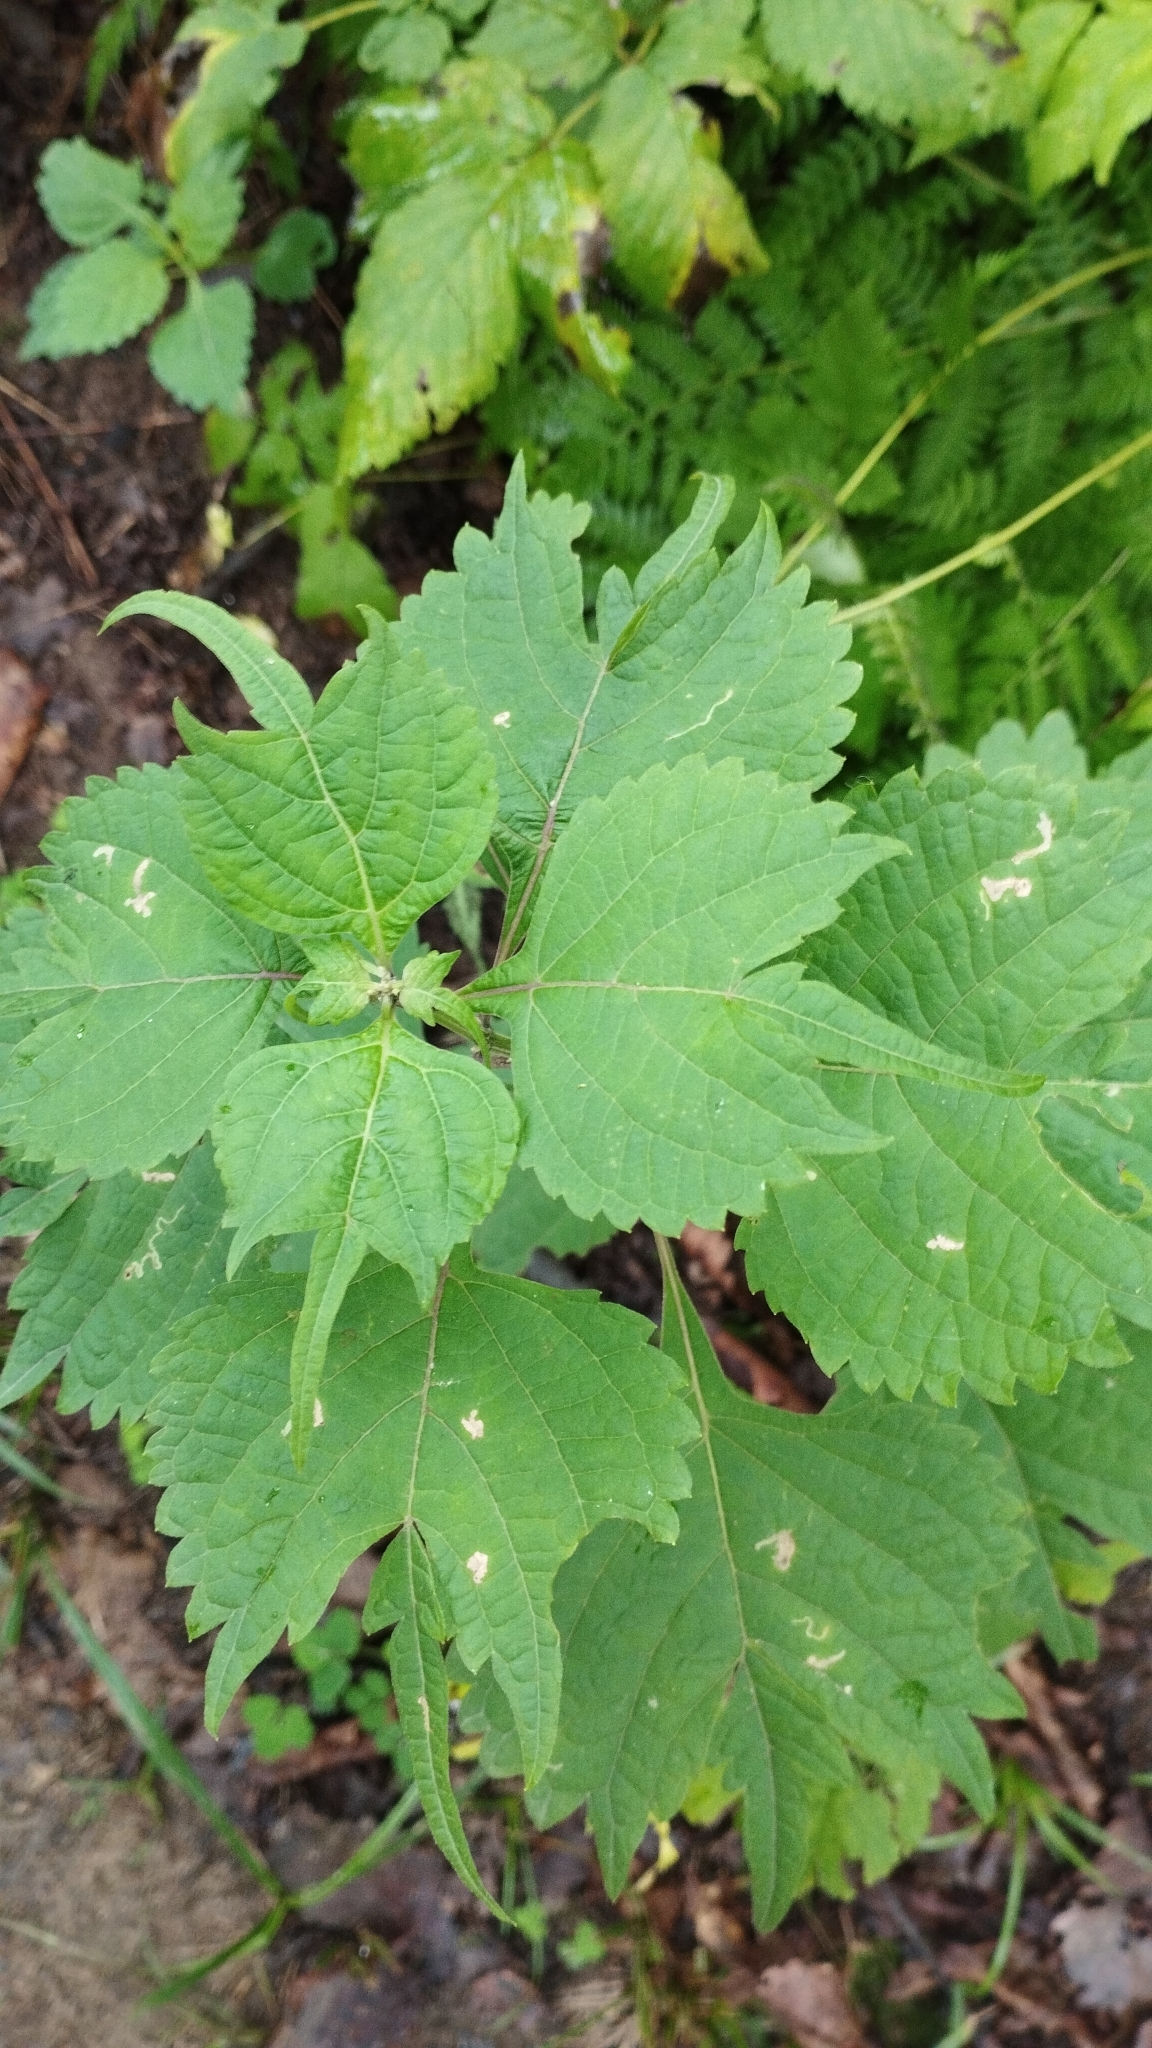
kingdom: Plantae
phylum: Tracheophyta
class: Magnoliopsida
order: Lamiales
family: Lamiaceae
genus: Isodon
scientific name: Isodon excisus
